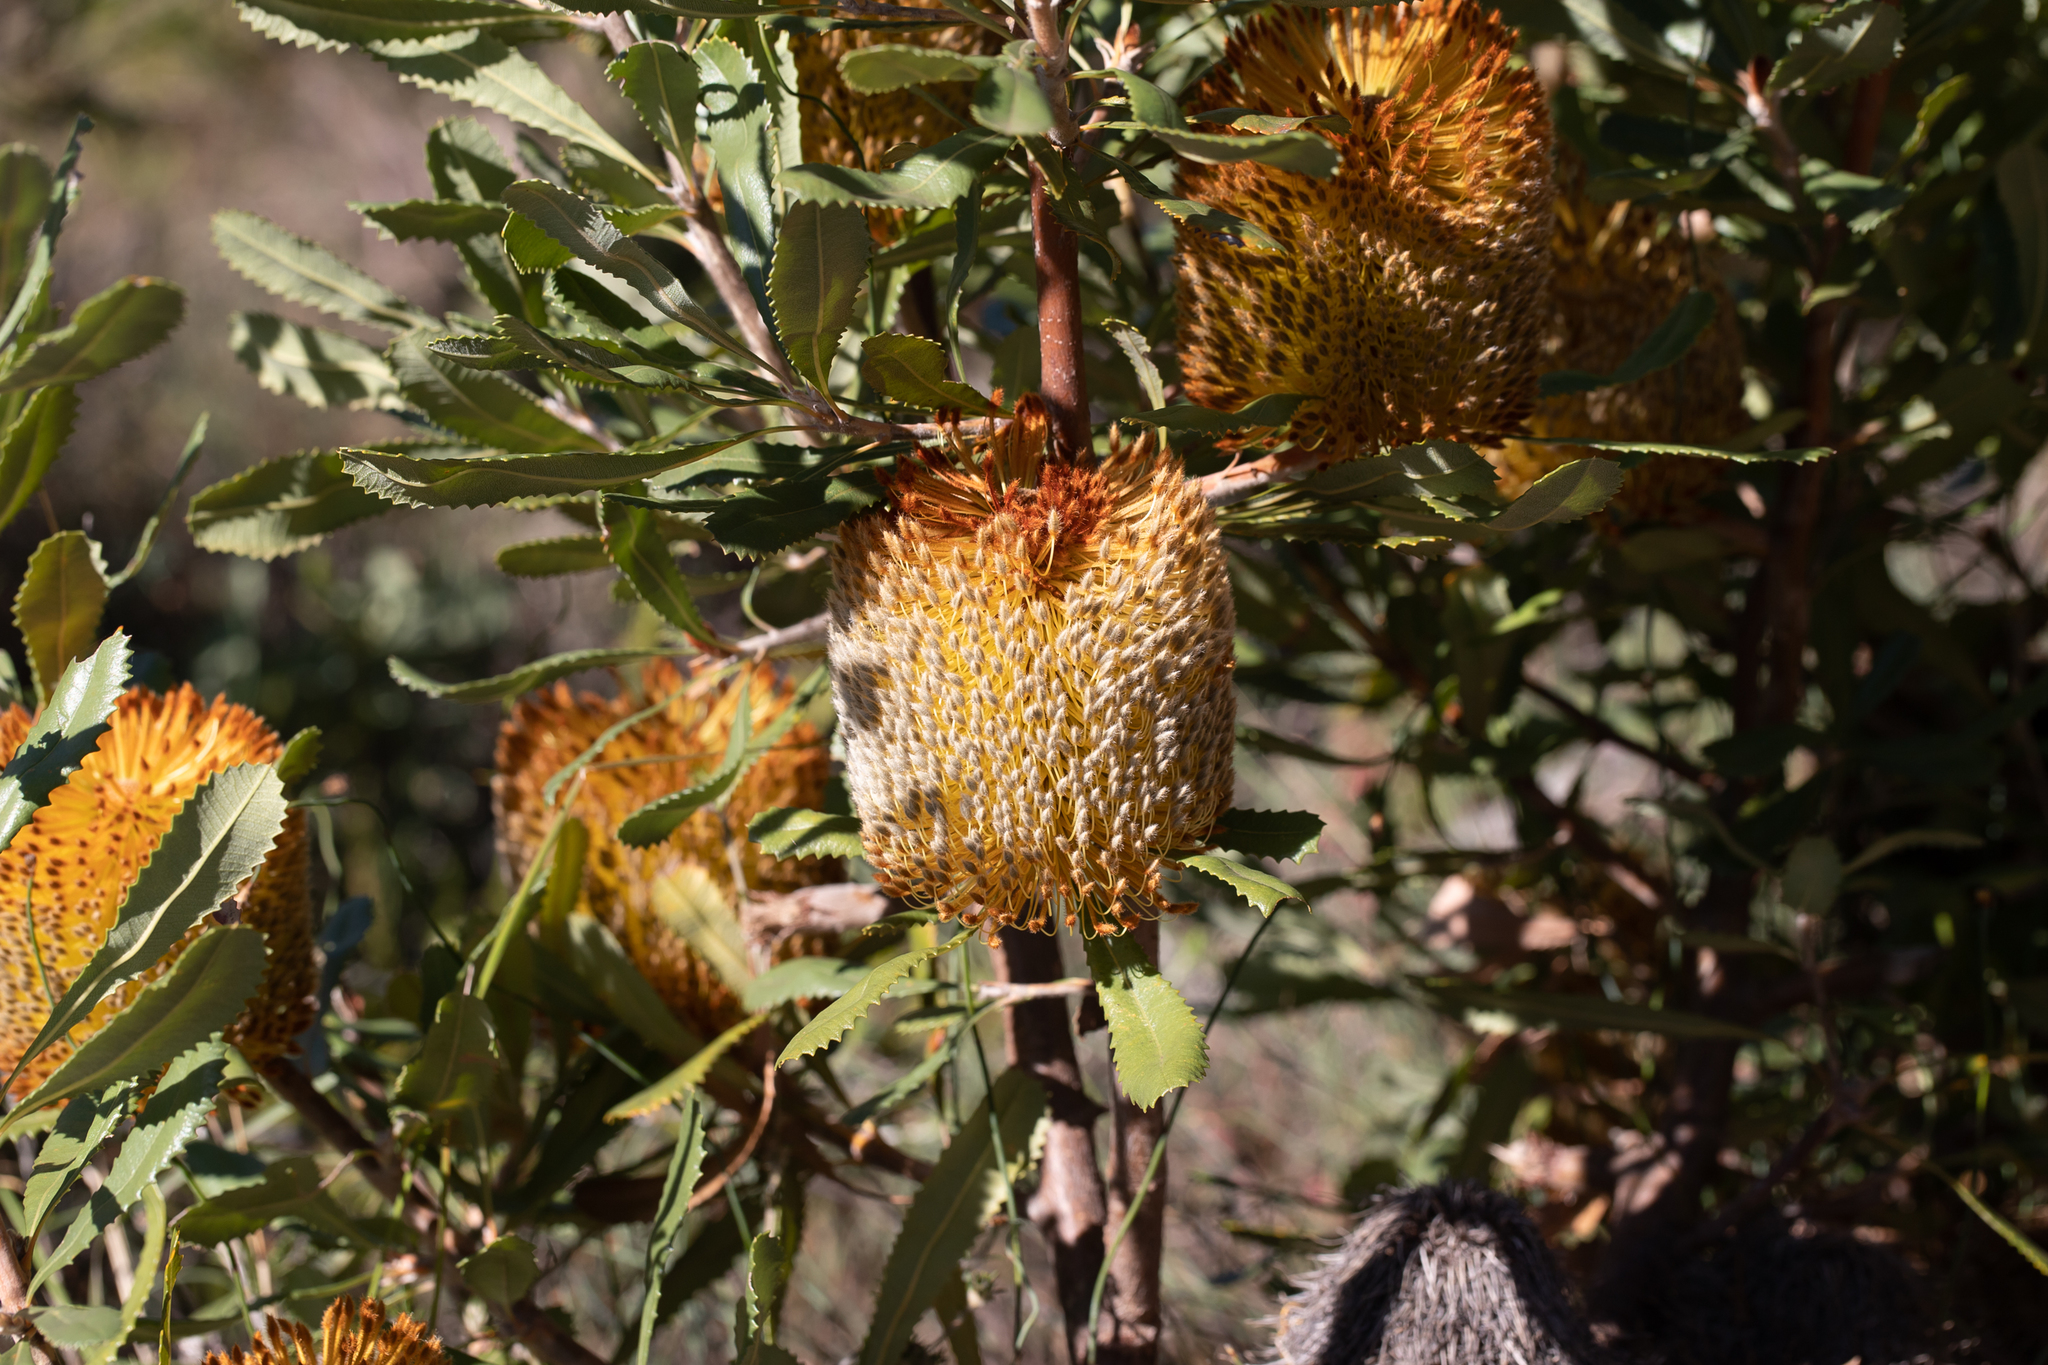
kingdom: Plantae
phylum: Tracheophyta
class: Magnoliopsida
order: Proteales
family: Proteaceae
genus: Banksia
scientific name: Banksia ornata
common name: Desert banksia
